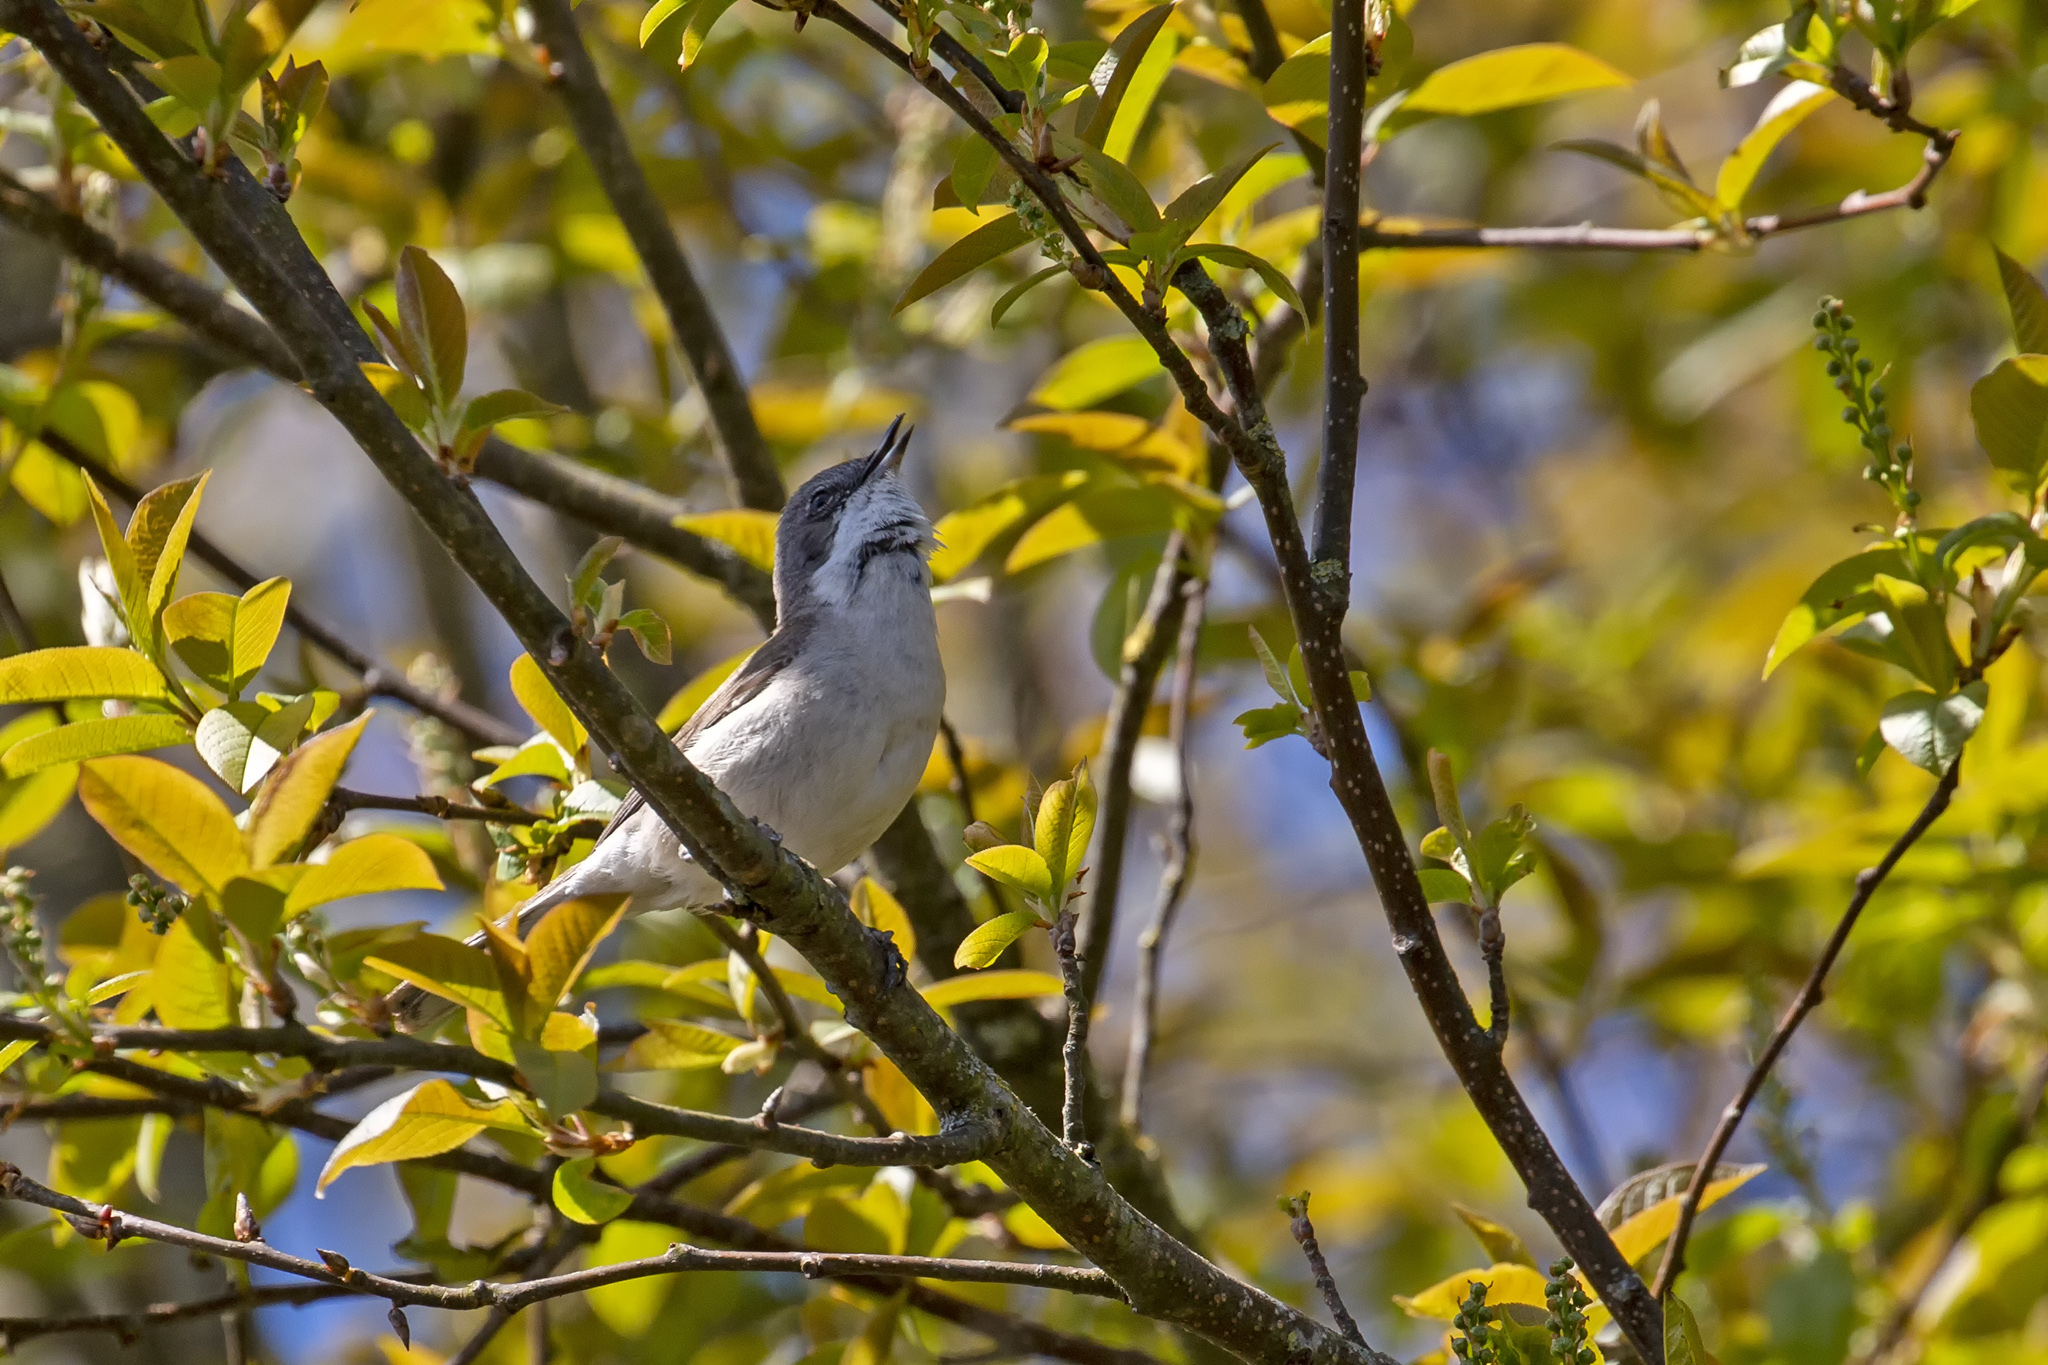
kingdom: Animalia
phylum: Chordata
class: Aves
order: Passeriformes
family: Sylviidae
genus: Sylvia
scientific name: Sylvia curruca
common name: Lesser whitethroat
